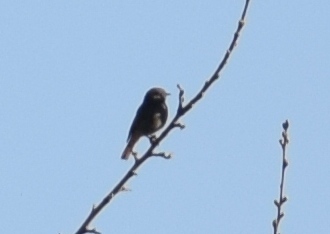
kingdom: Animalia
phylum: Chordata
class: Aves
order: Passeriformes
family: Muscicapidae
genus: Phoenicurus
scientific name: Phoenicurus ochruros
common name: Black redstart
